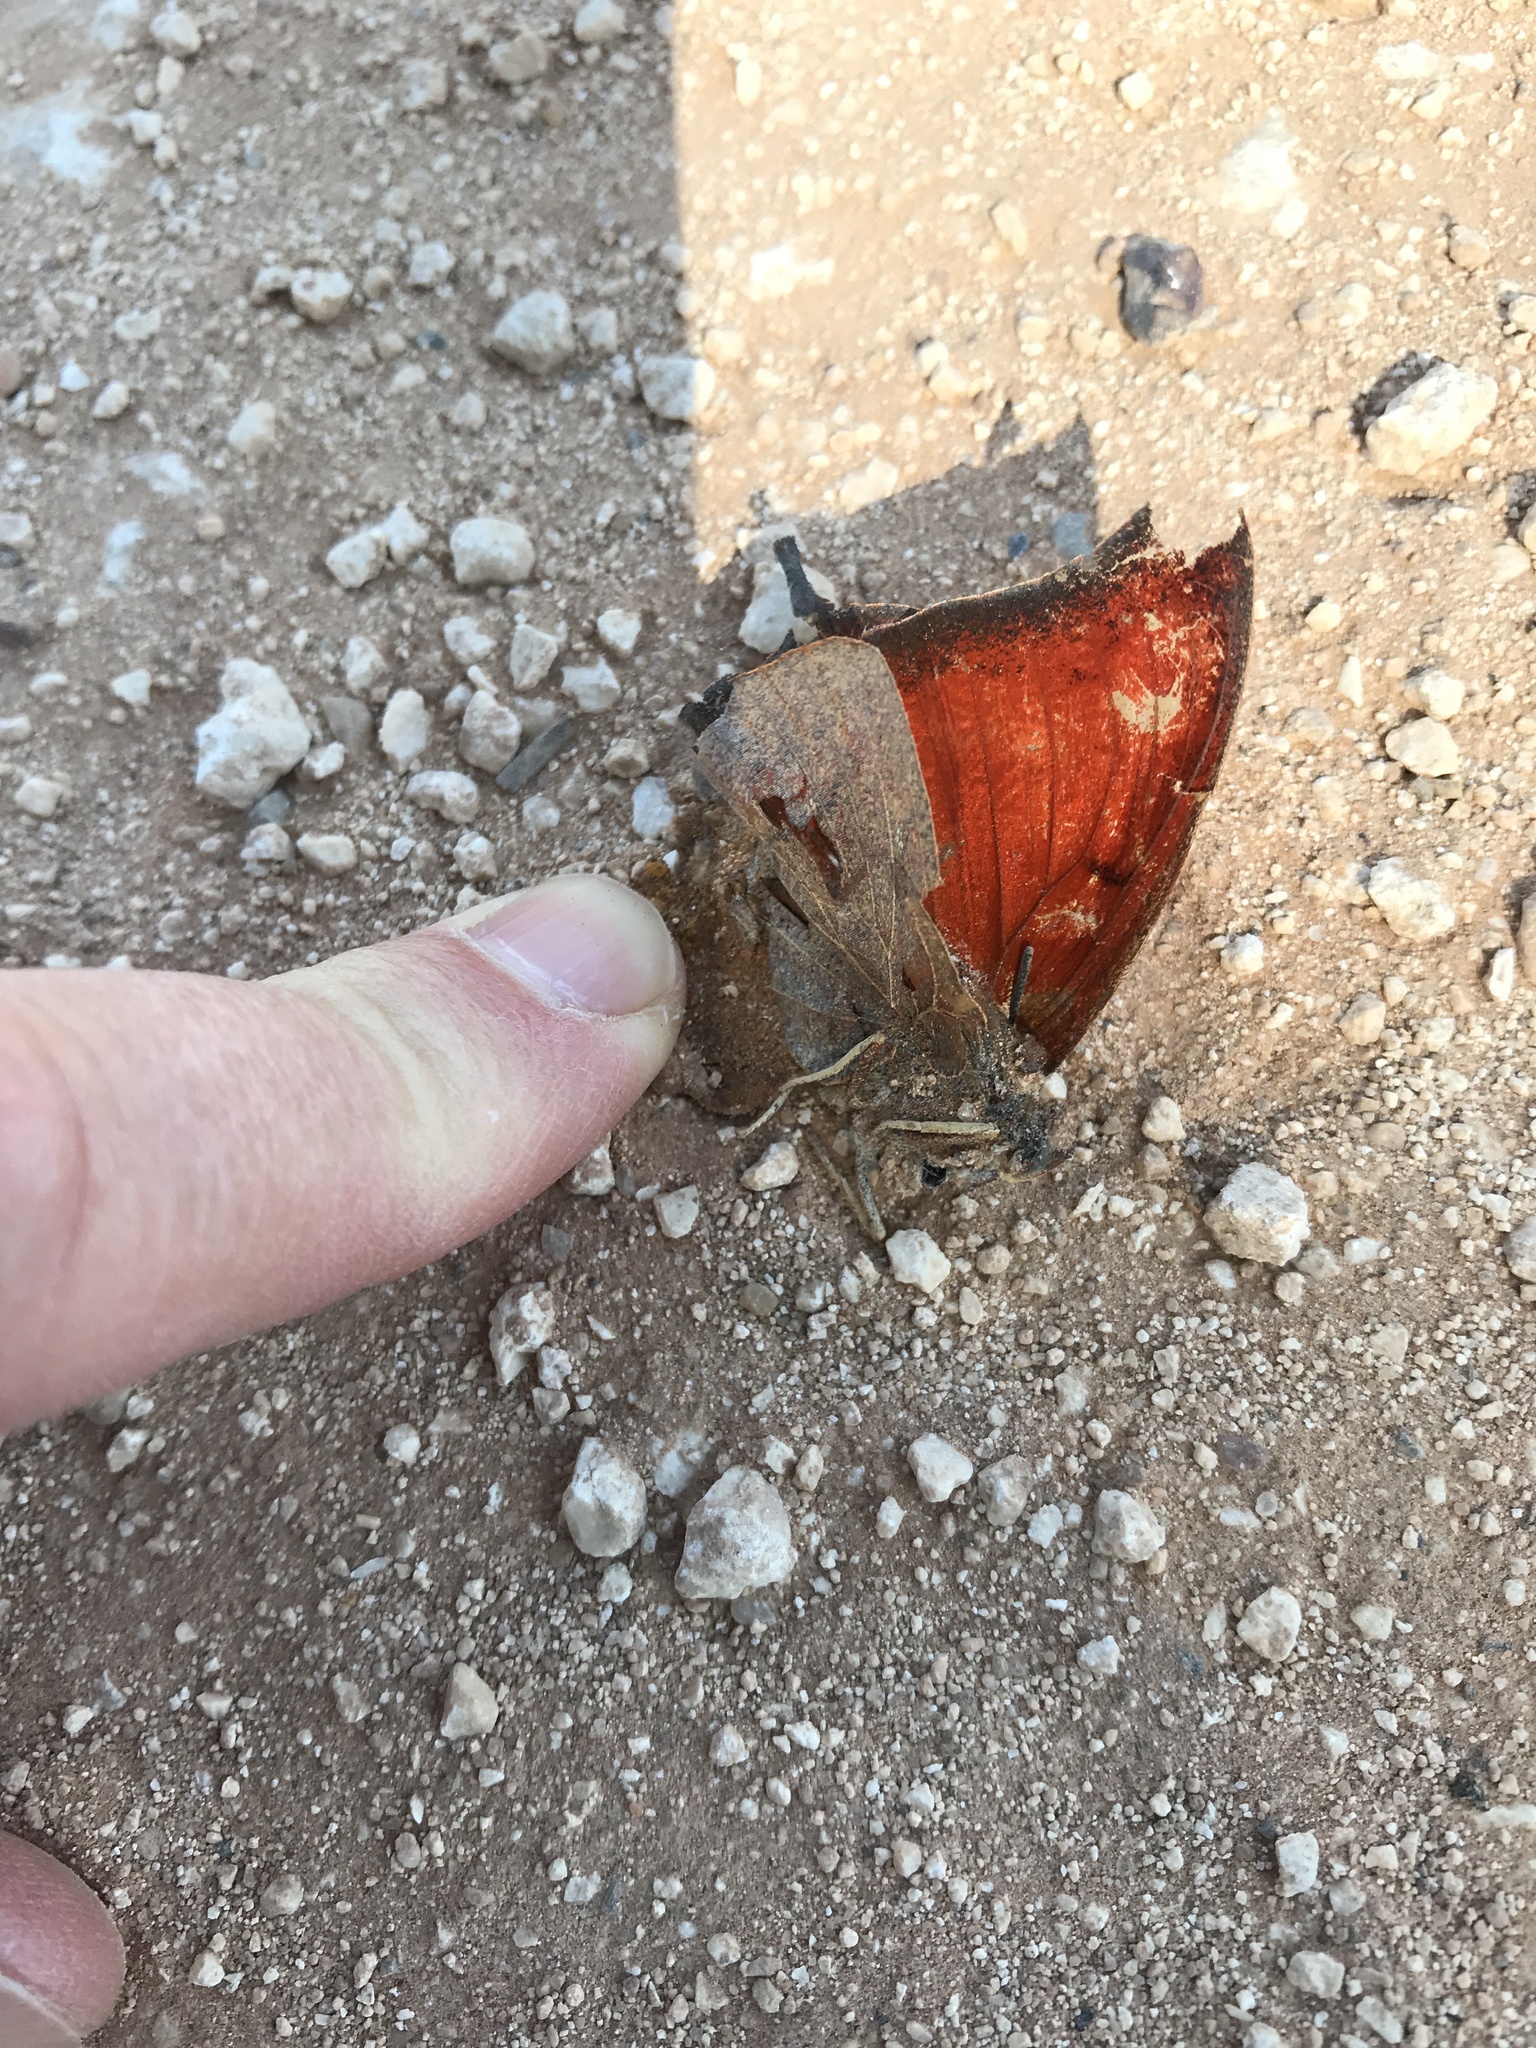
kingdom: Animalia
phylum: Arthropoda
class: Insecta
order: Lepidoptera
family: Nymphalidae
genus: Anaea
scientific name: Anaea andria
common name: Goatweed leafwing
